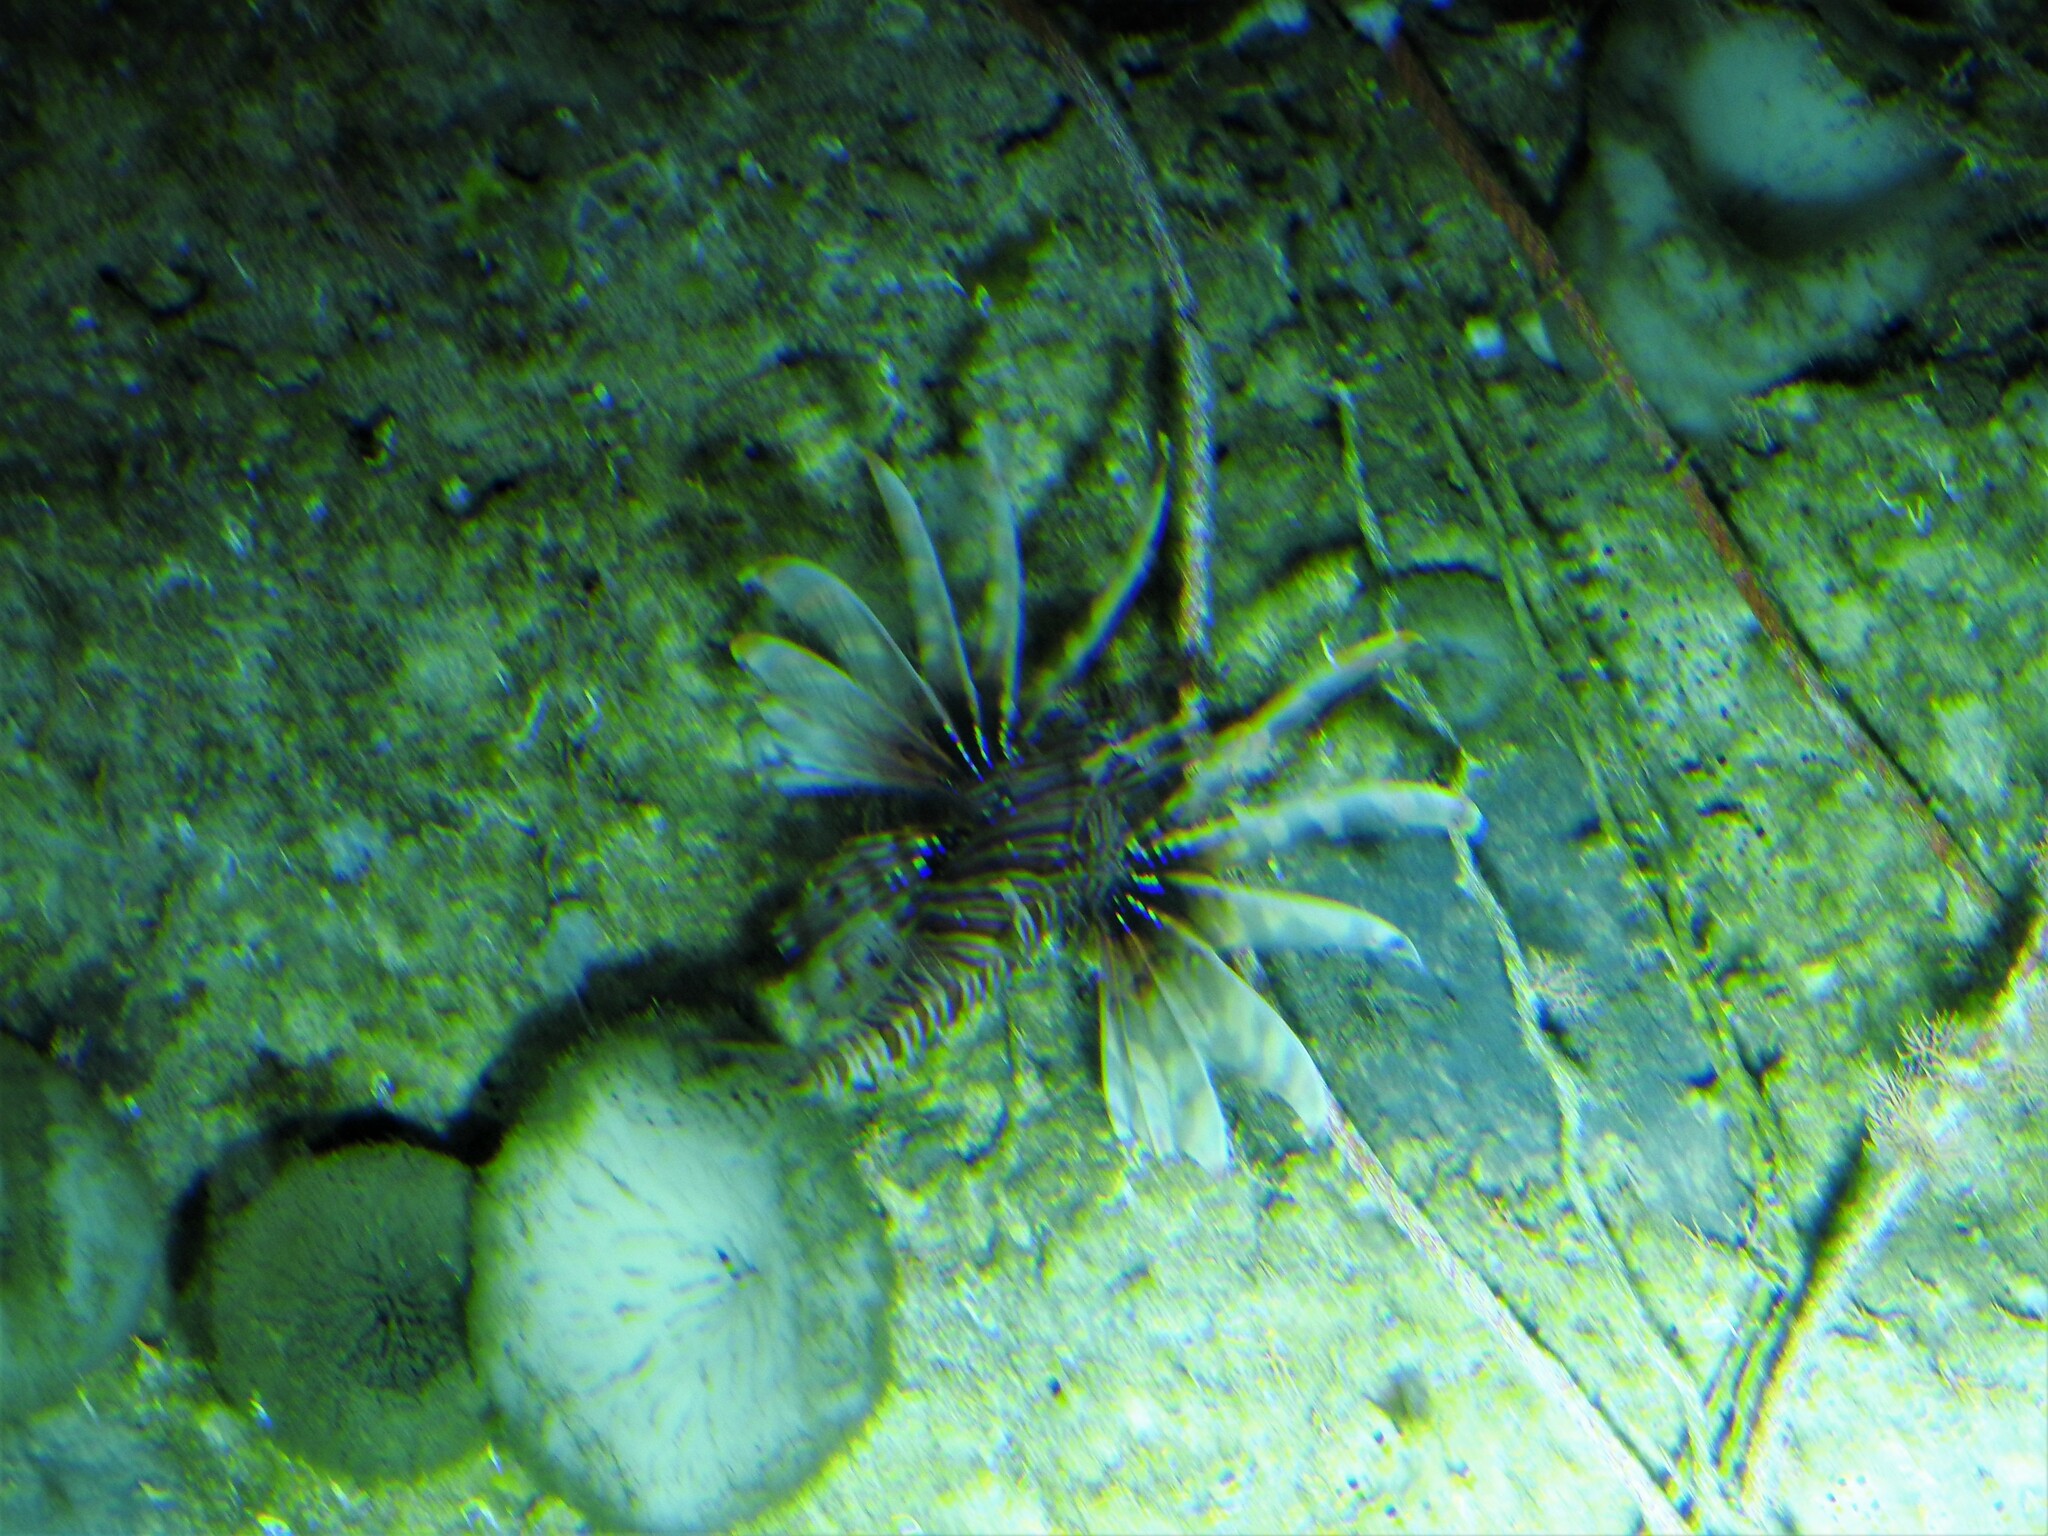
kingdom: Animalia
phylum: Chordata
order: Scorpaeniformes
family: Scorpaenidae
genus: Pterois
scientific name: Pterois volitans
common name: Lionfish
